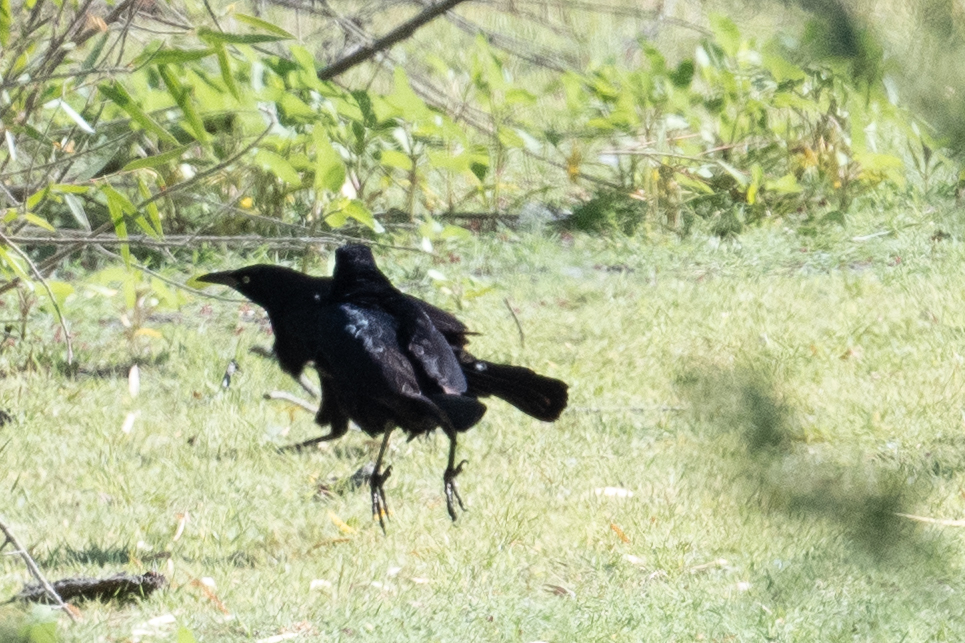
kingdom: Animalia
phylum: Chordata
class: Aves
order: Passeriformes
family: Icteridae
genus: Quiscalus
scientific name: Quiscalus mexicanus
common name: Great-tailed grackle
